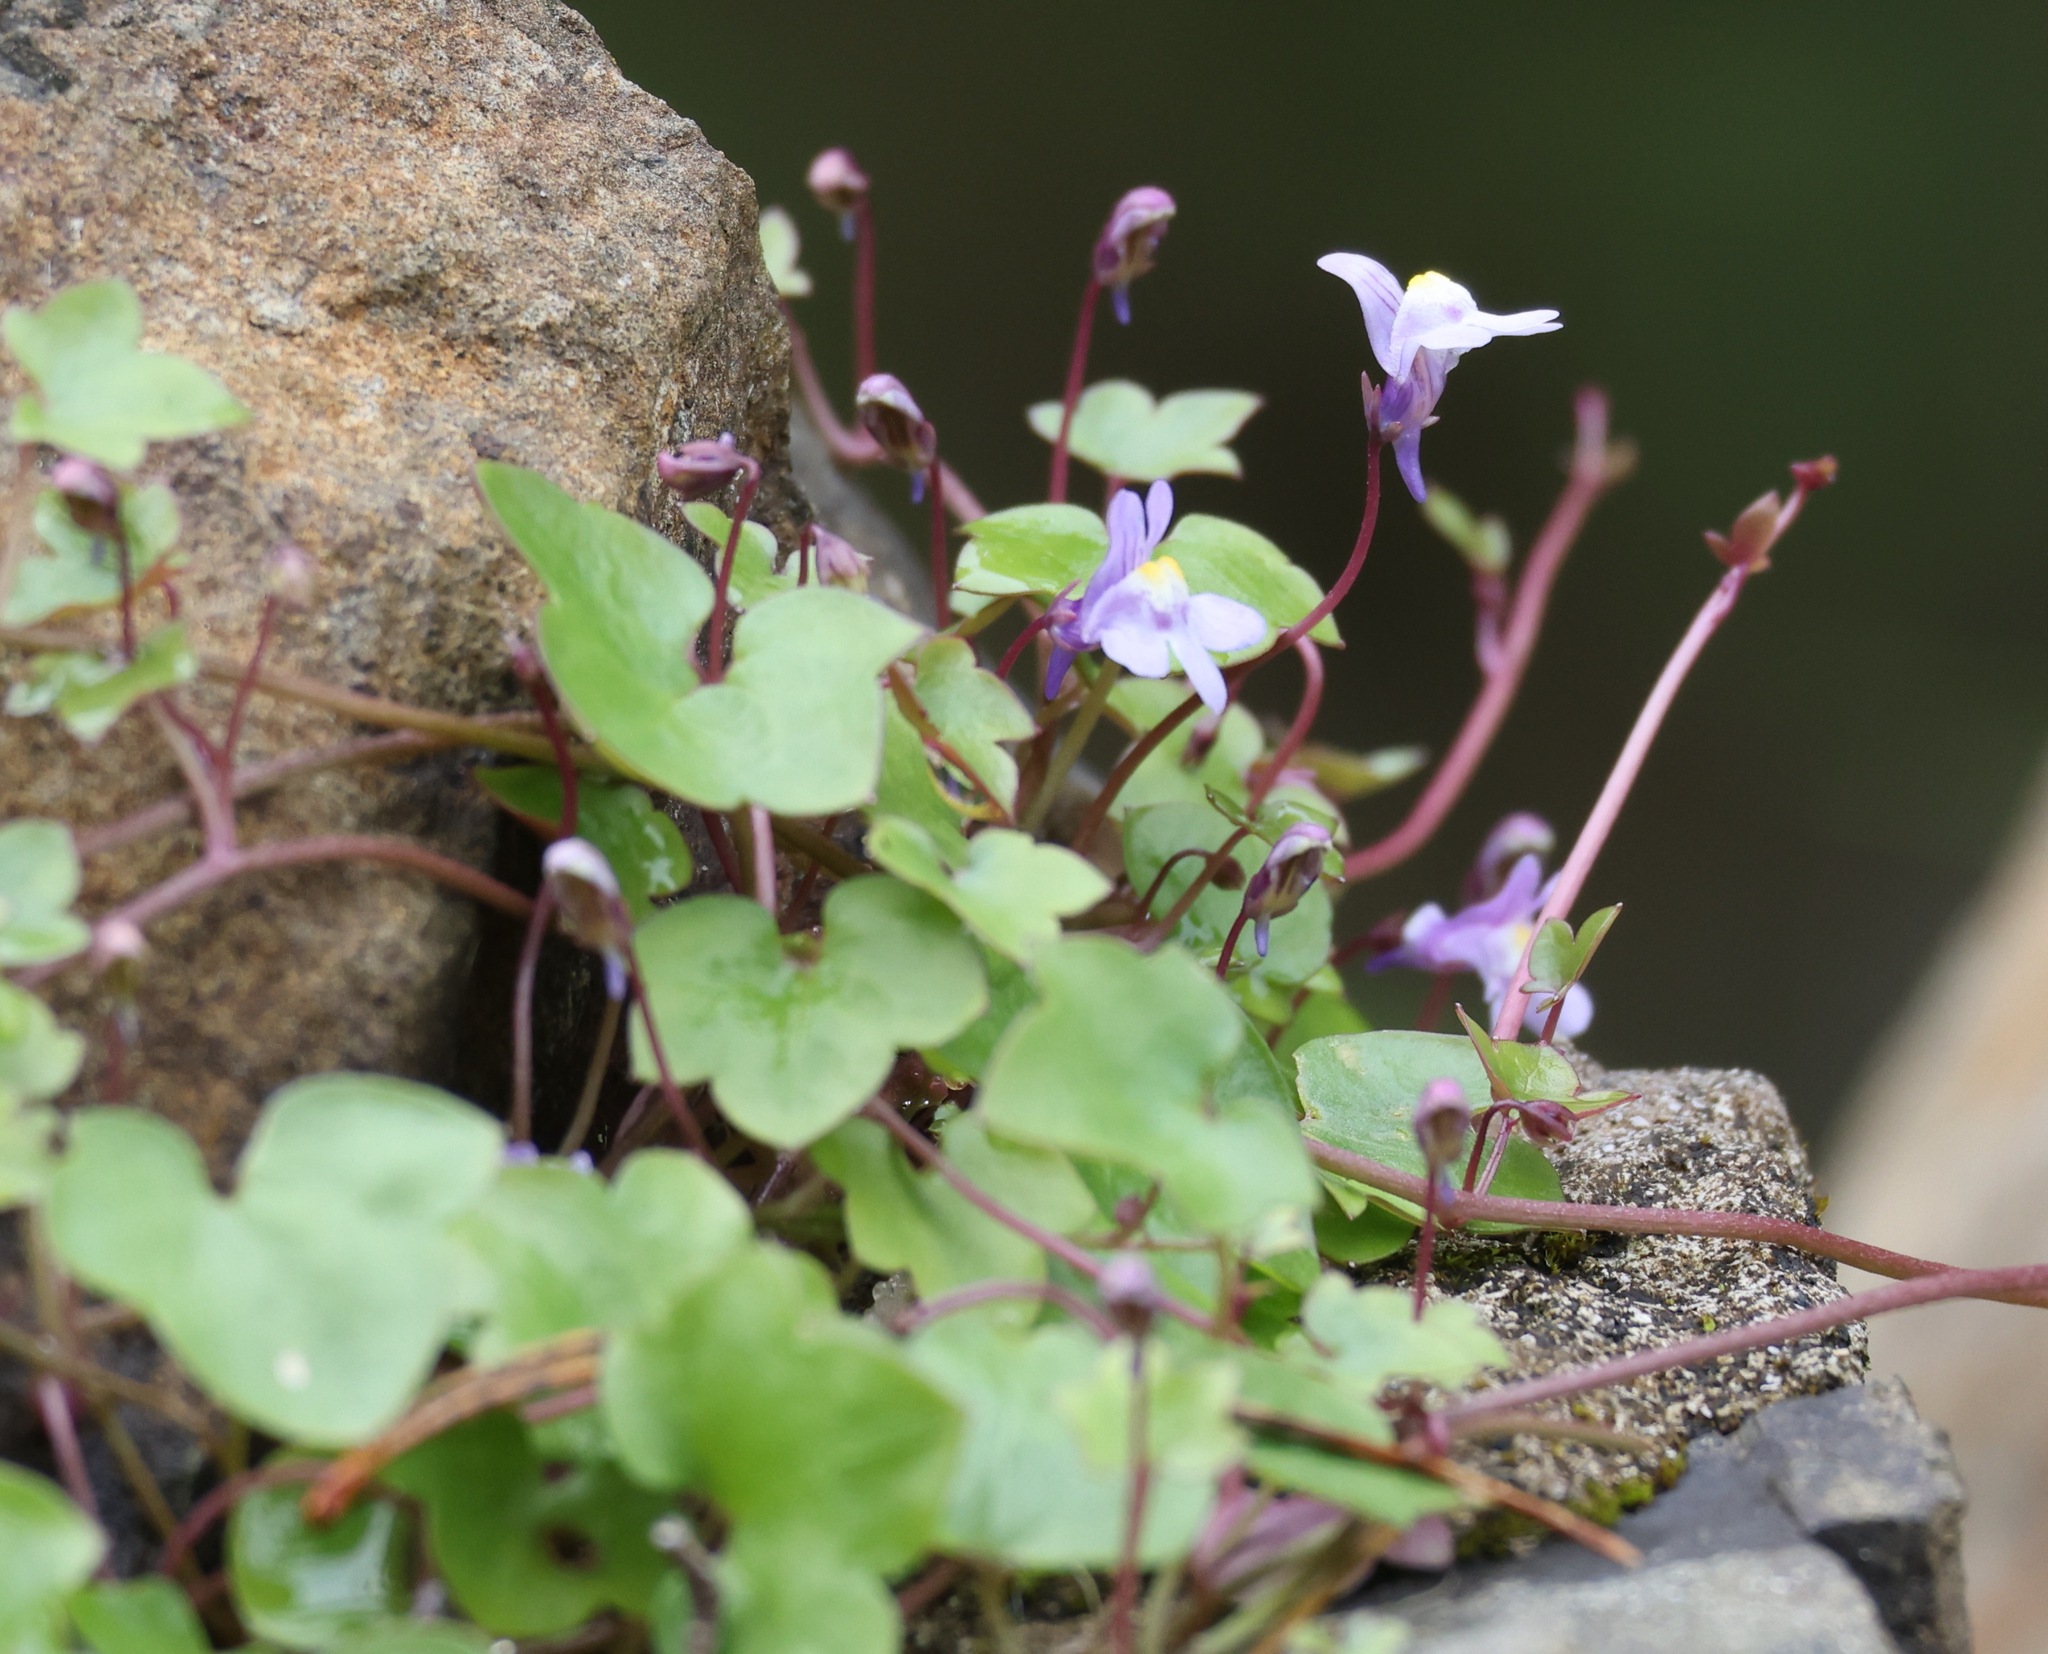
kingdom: Plantae
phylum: Tracheophyta
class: Magnoliopsida
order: Lamiales
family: Plantaginaceae
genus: Cymbalaria
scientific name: Cymbalaria muralis
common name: Ivy-leaved toadflax
